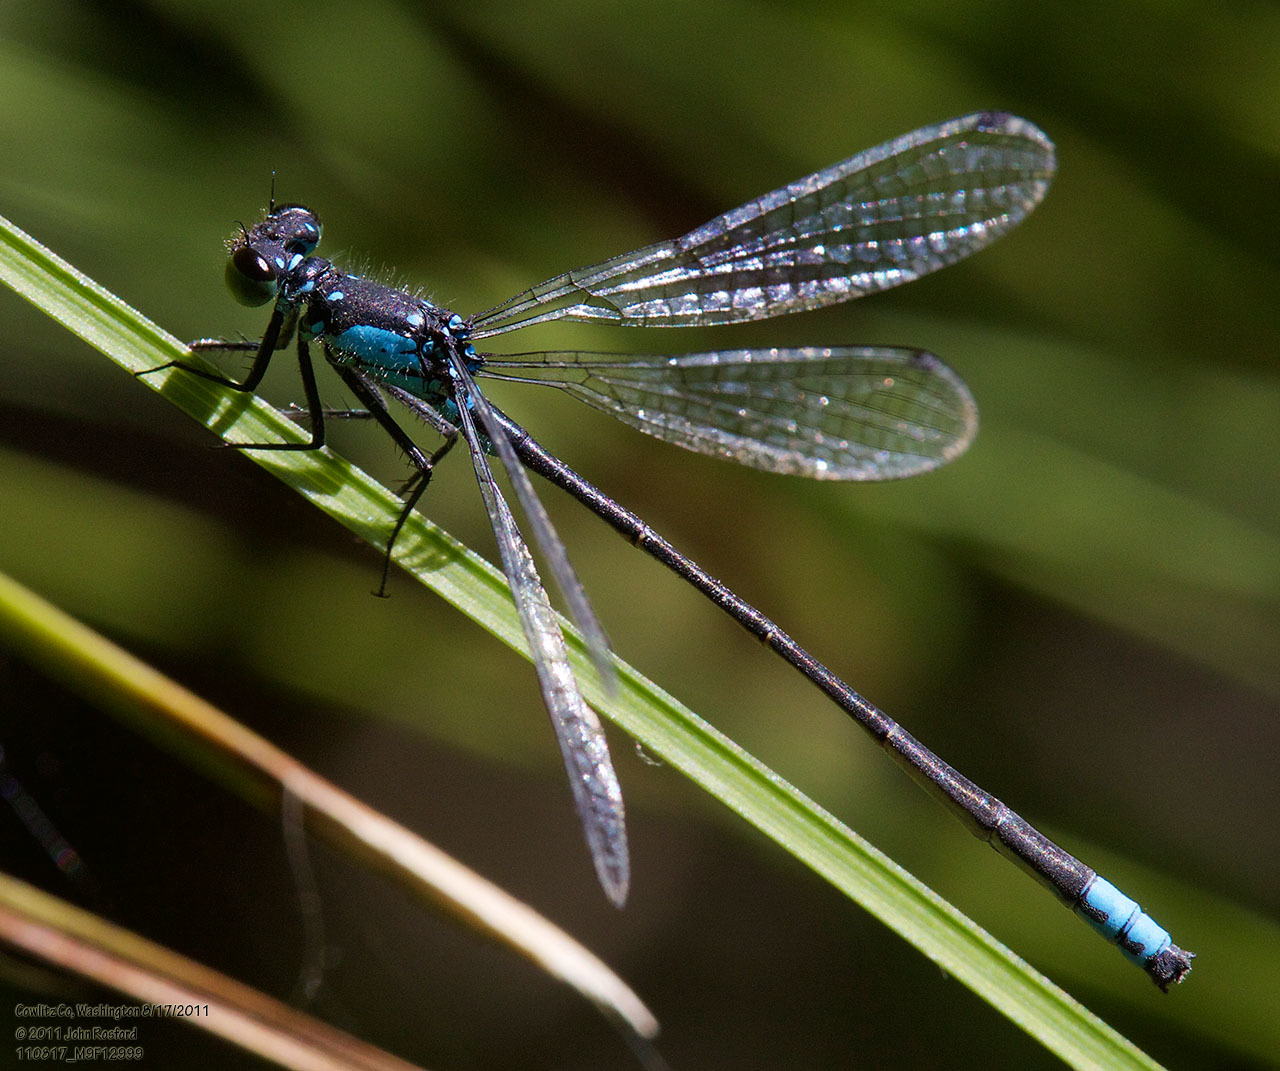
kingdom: Animalia
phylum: Arthropoda
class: Insecta
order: Odonata
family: Coenagrionidae
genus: Ischnura
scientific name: Ischnura cervula
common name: Pacific forktail
